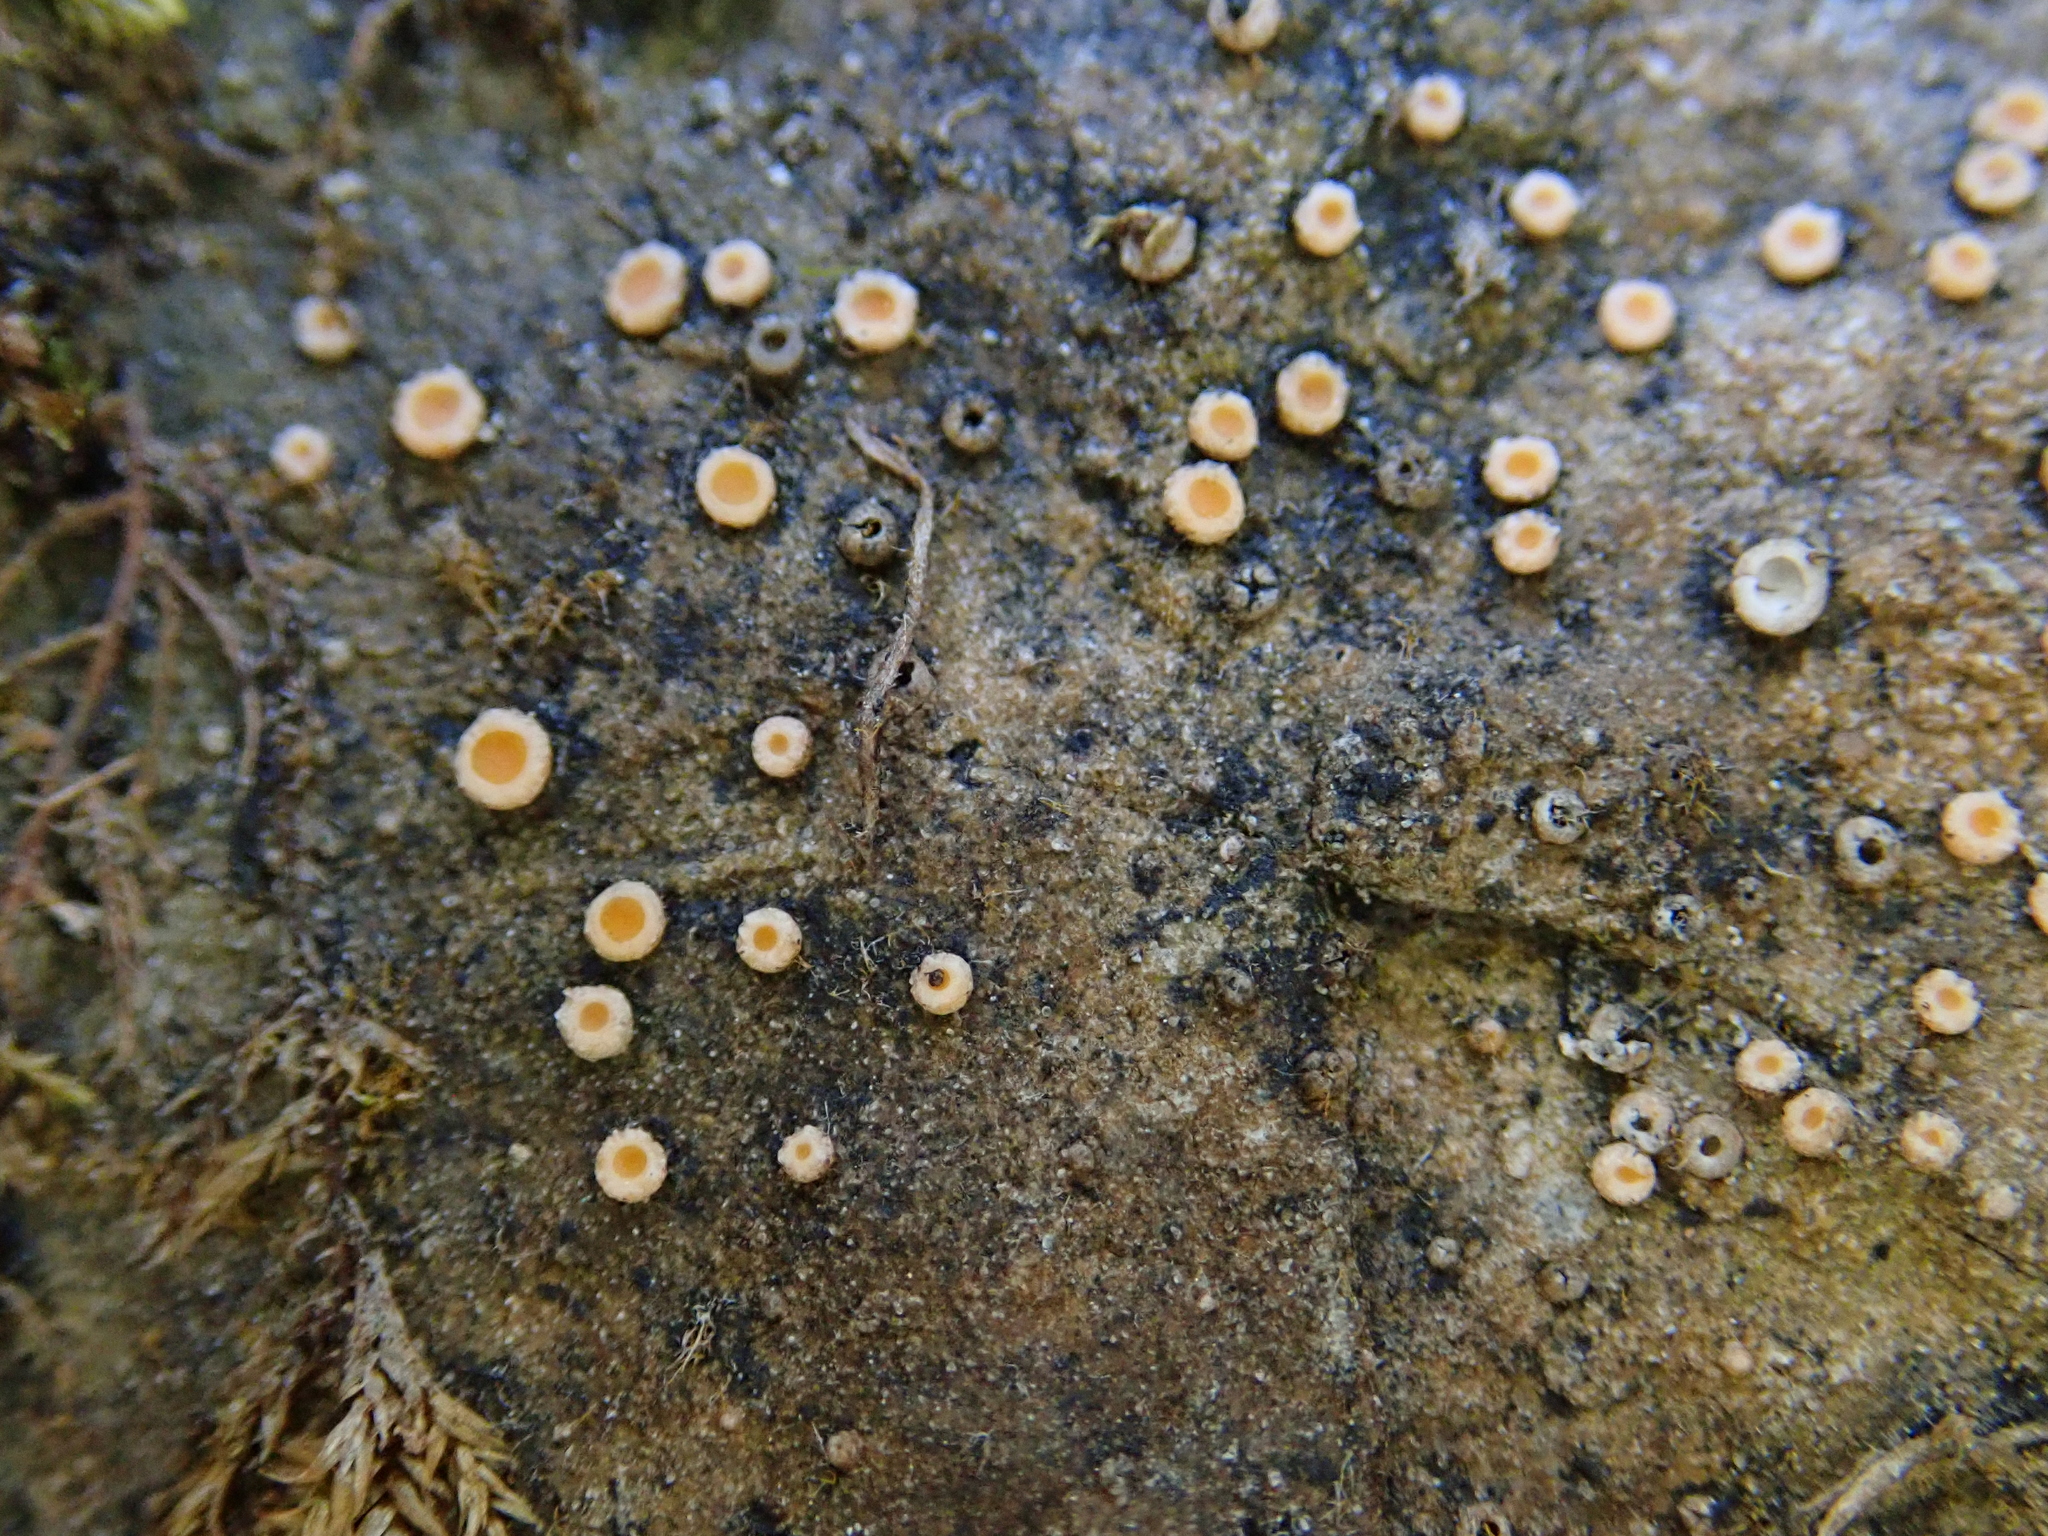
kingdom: Fungi
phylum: Ascomycota
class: Lecanoromycetes
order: Gyalectales
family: Gyalectaceae
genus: Gyalecta
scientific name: Gyalecta jenensis
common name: Rock dimple lichen
